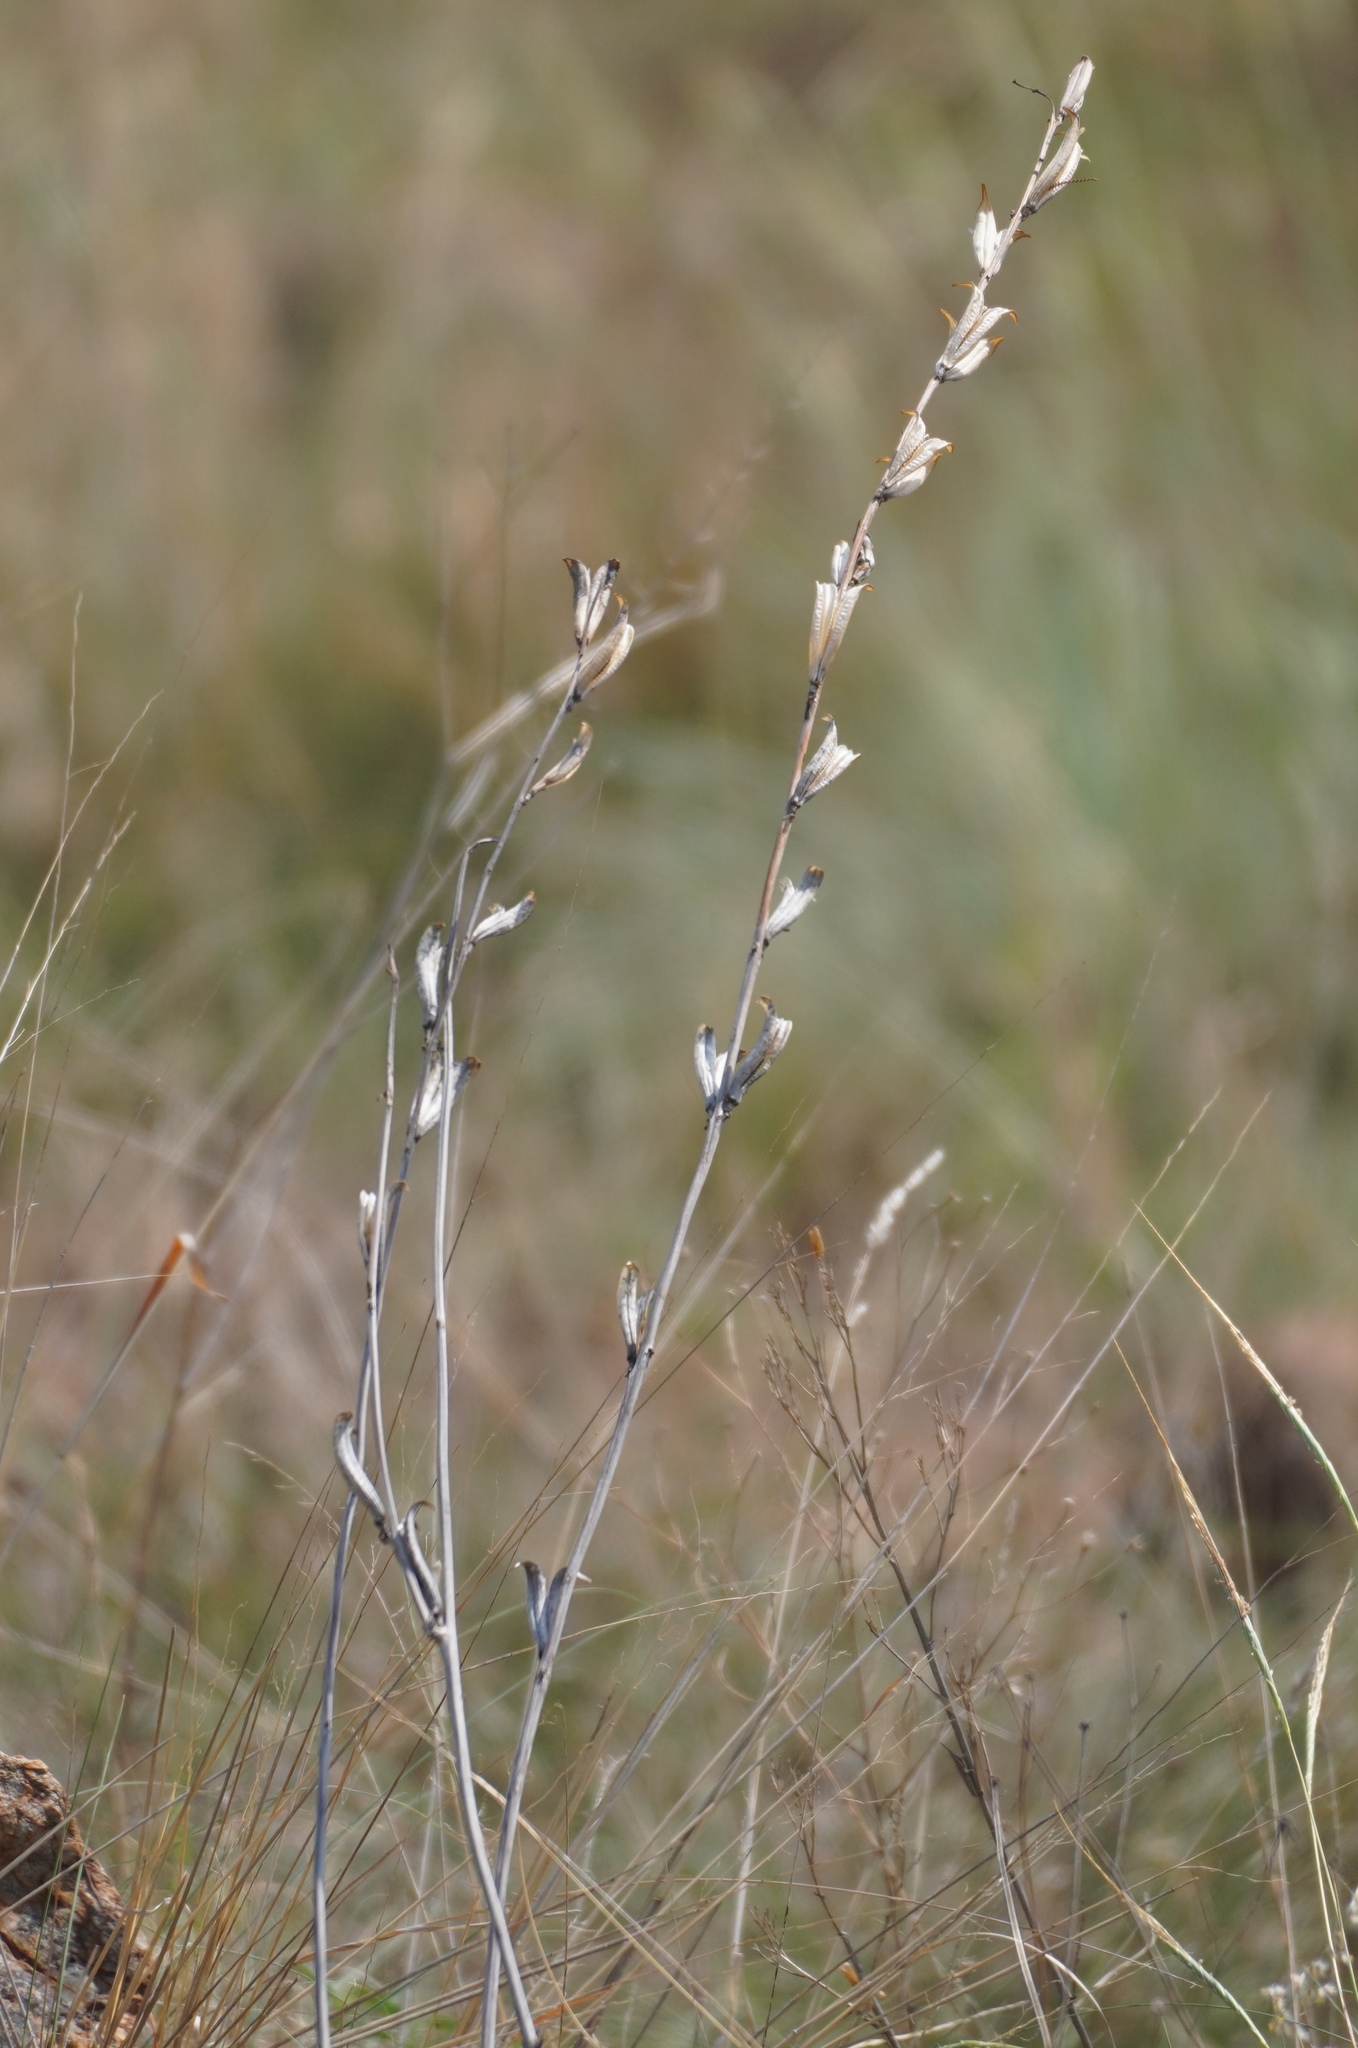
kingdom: Plantae
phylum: Tracheophyta
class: Magnoliopsida
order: Lamiales
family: Pedaliaceae
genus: Sesamum
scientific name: Sesamum trilobum
